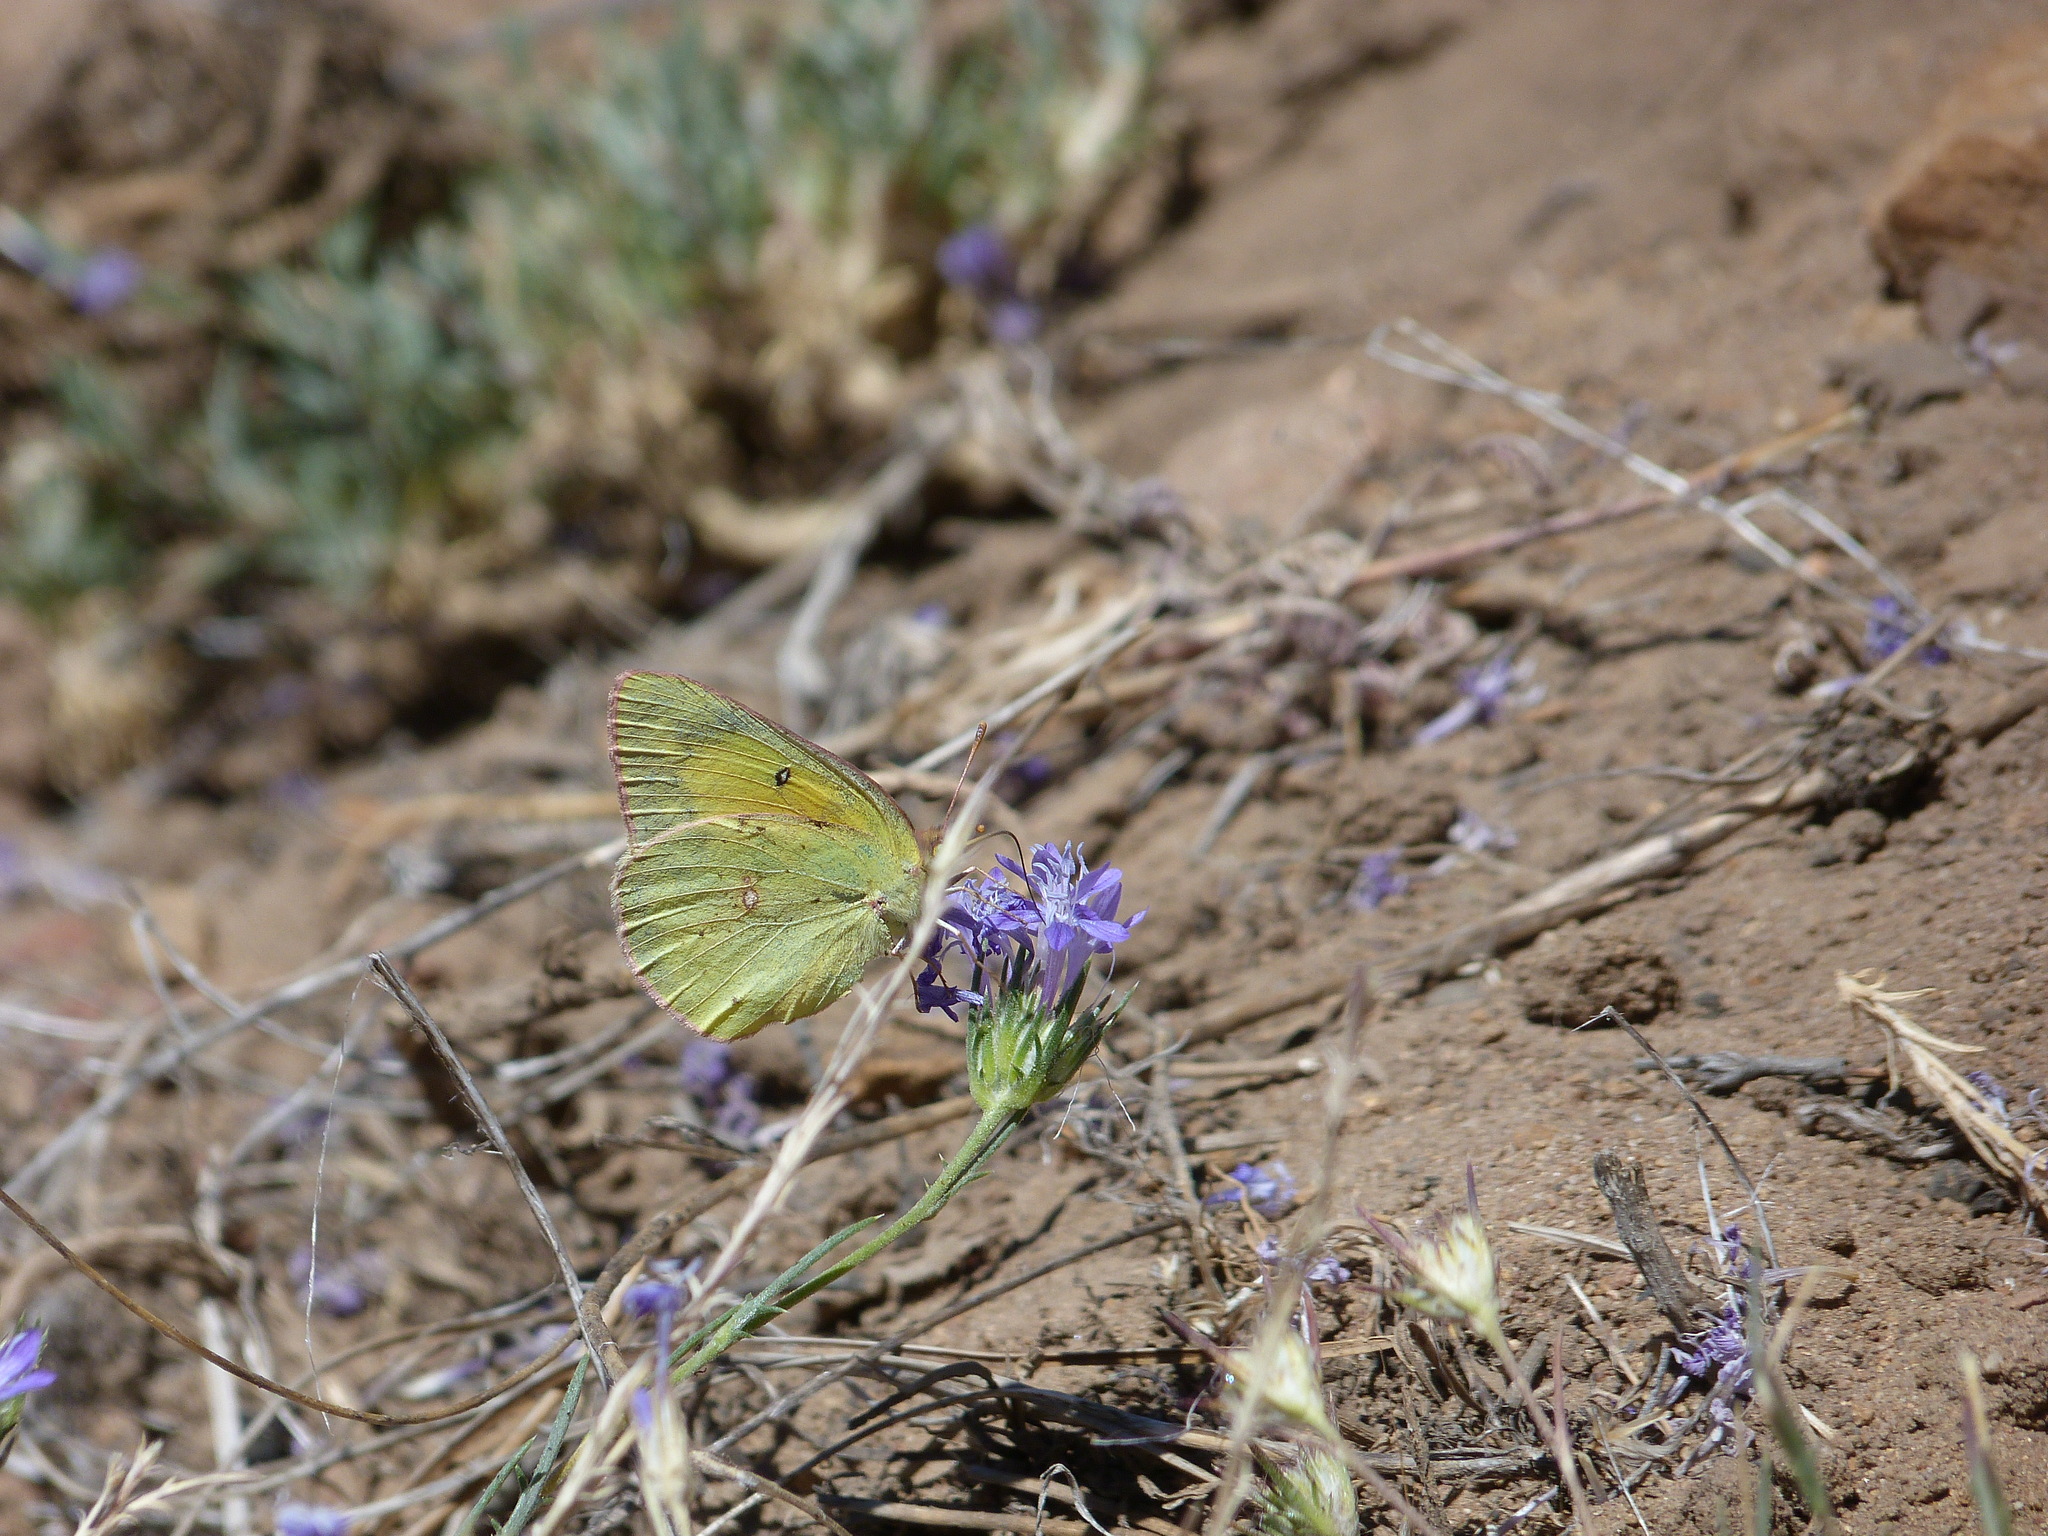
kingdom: Animalia
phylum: Arthropoda
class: Insecta
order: Lepidoptera
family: Pieridae
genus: Colias
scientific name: Colias eurytheme
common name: Alfalfa butterfly
